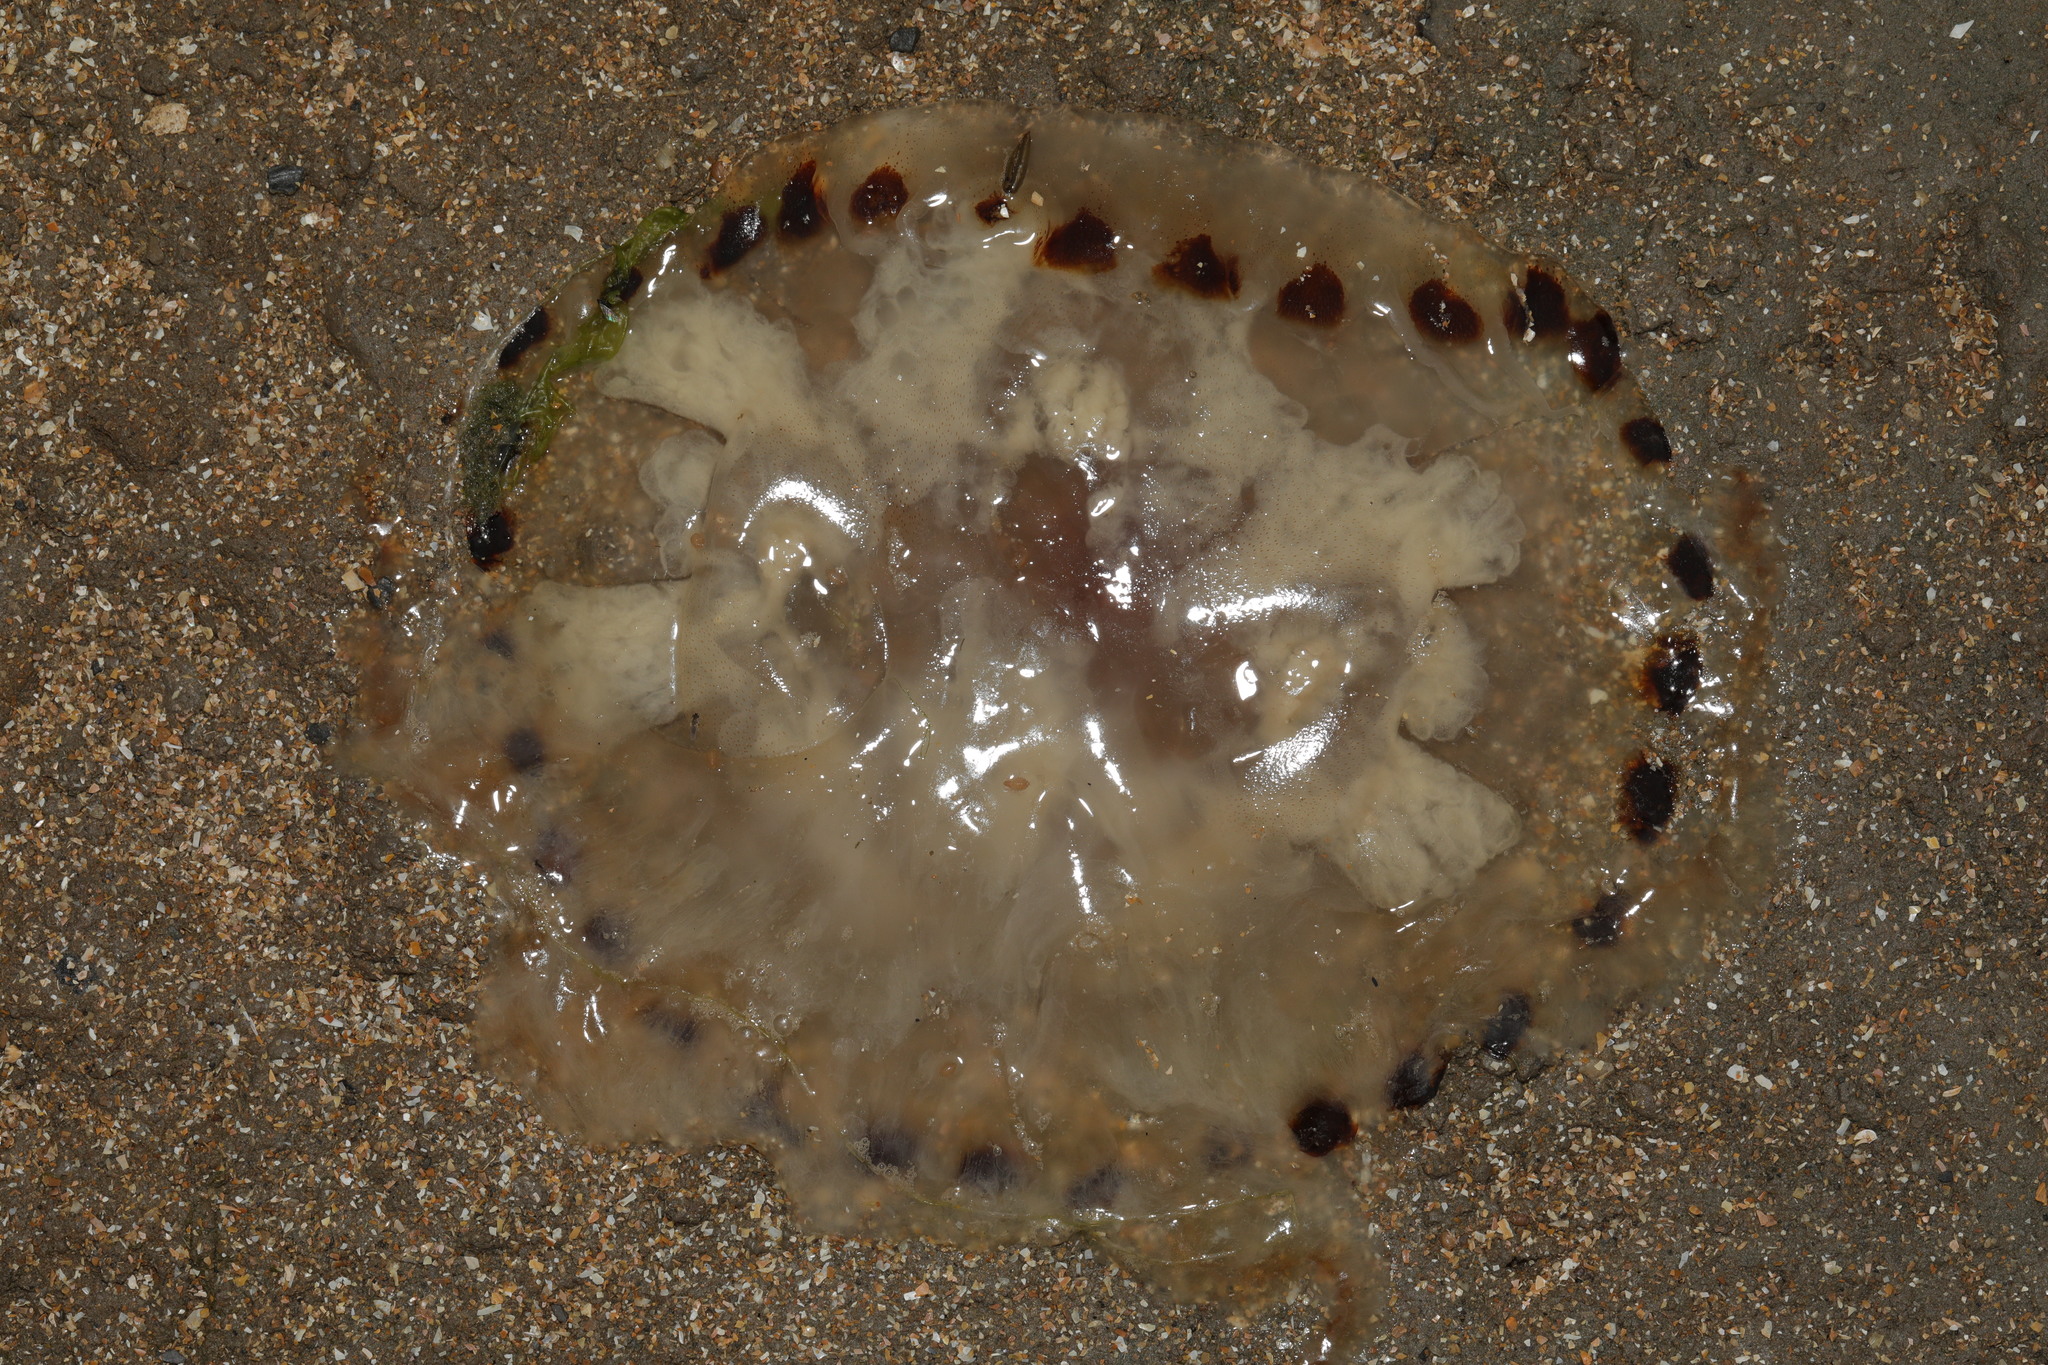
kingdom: Animalia
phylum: Cnidaria
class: Scyphozoa
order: Semaeostomeae
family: Pelagiidae
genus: Chrysaora
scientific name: Chrysaora hysoscella
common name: Compass jellyfish
